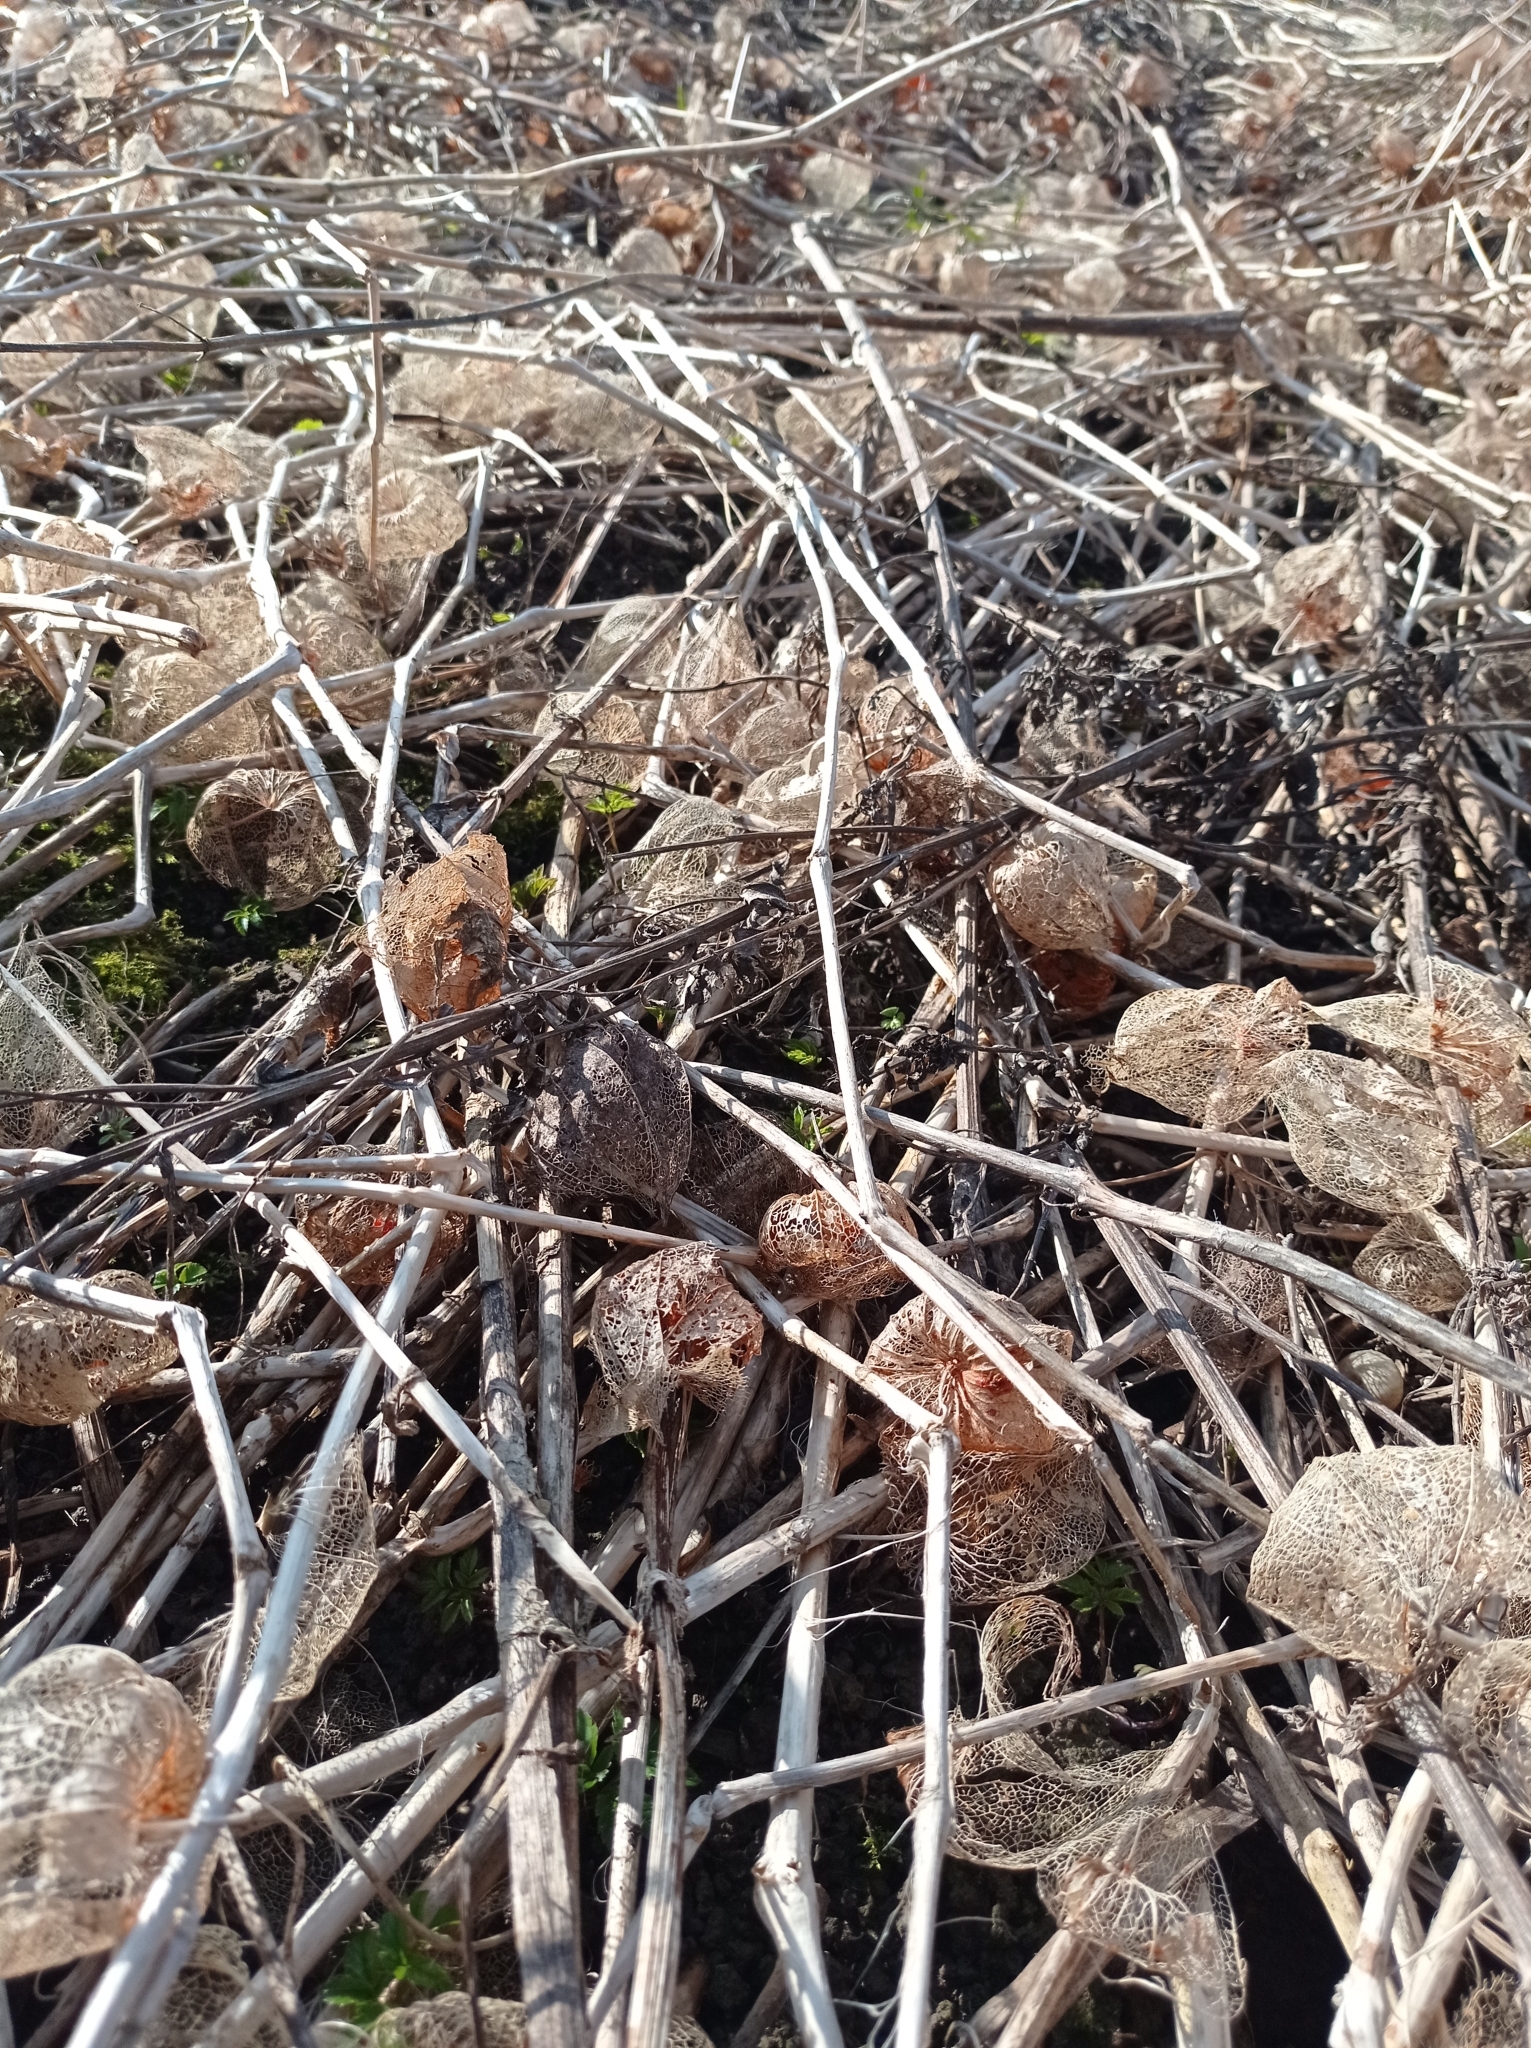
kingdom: Plantae
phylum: Tracheophyta
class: Magnoliopsida
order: Solanales
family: Solanaceae
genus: Alkekengi
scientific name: Alkekengi officinarum
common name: Japanese-lantern
